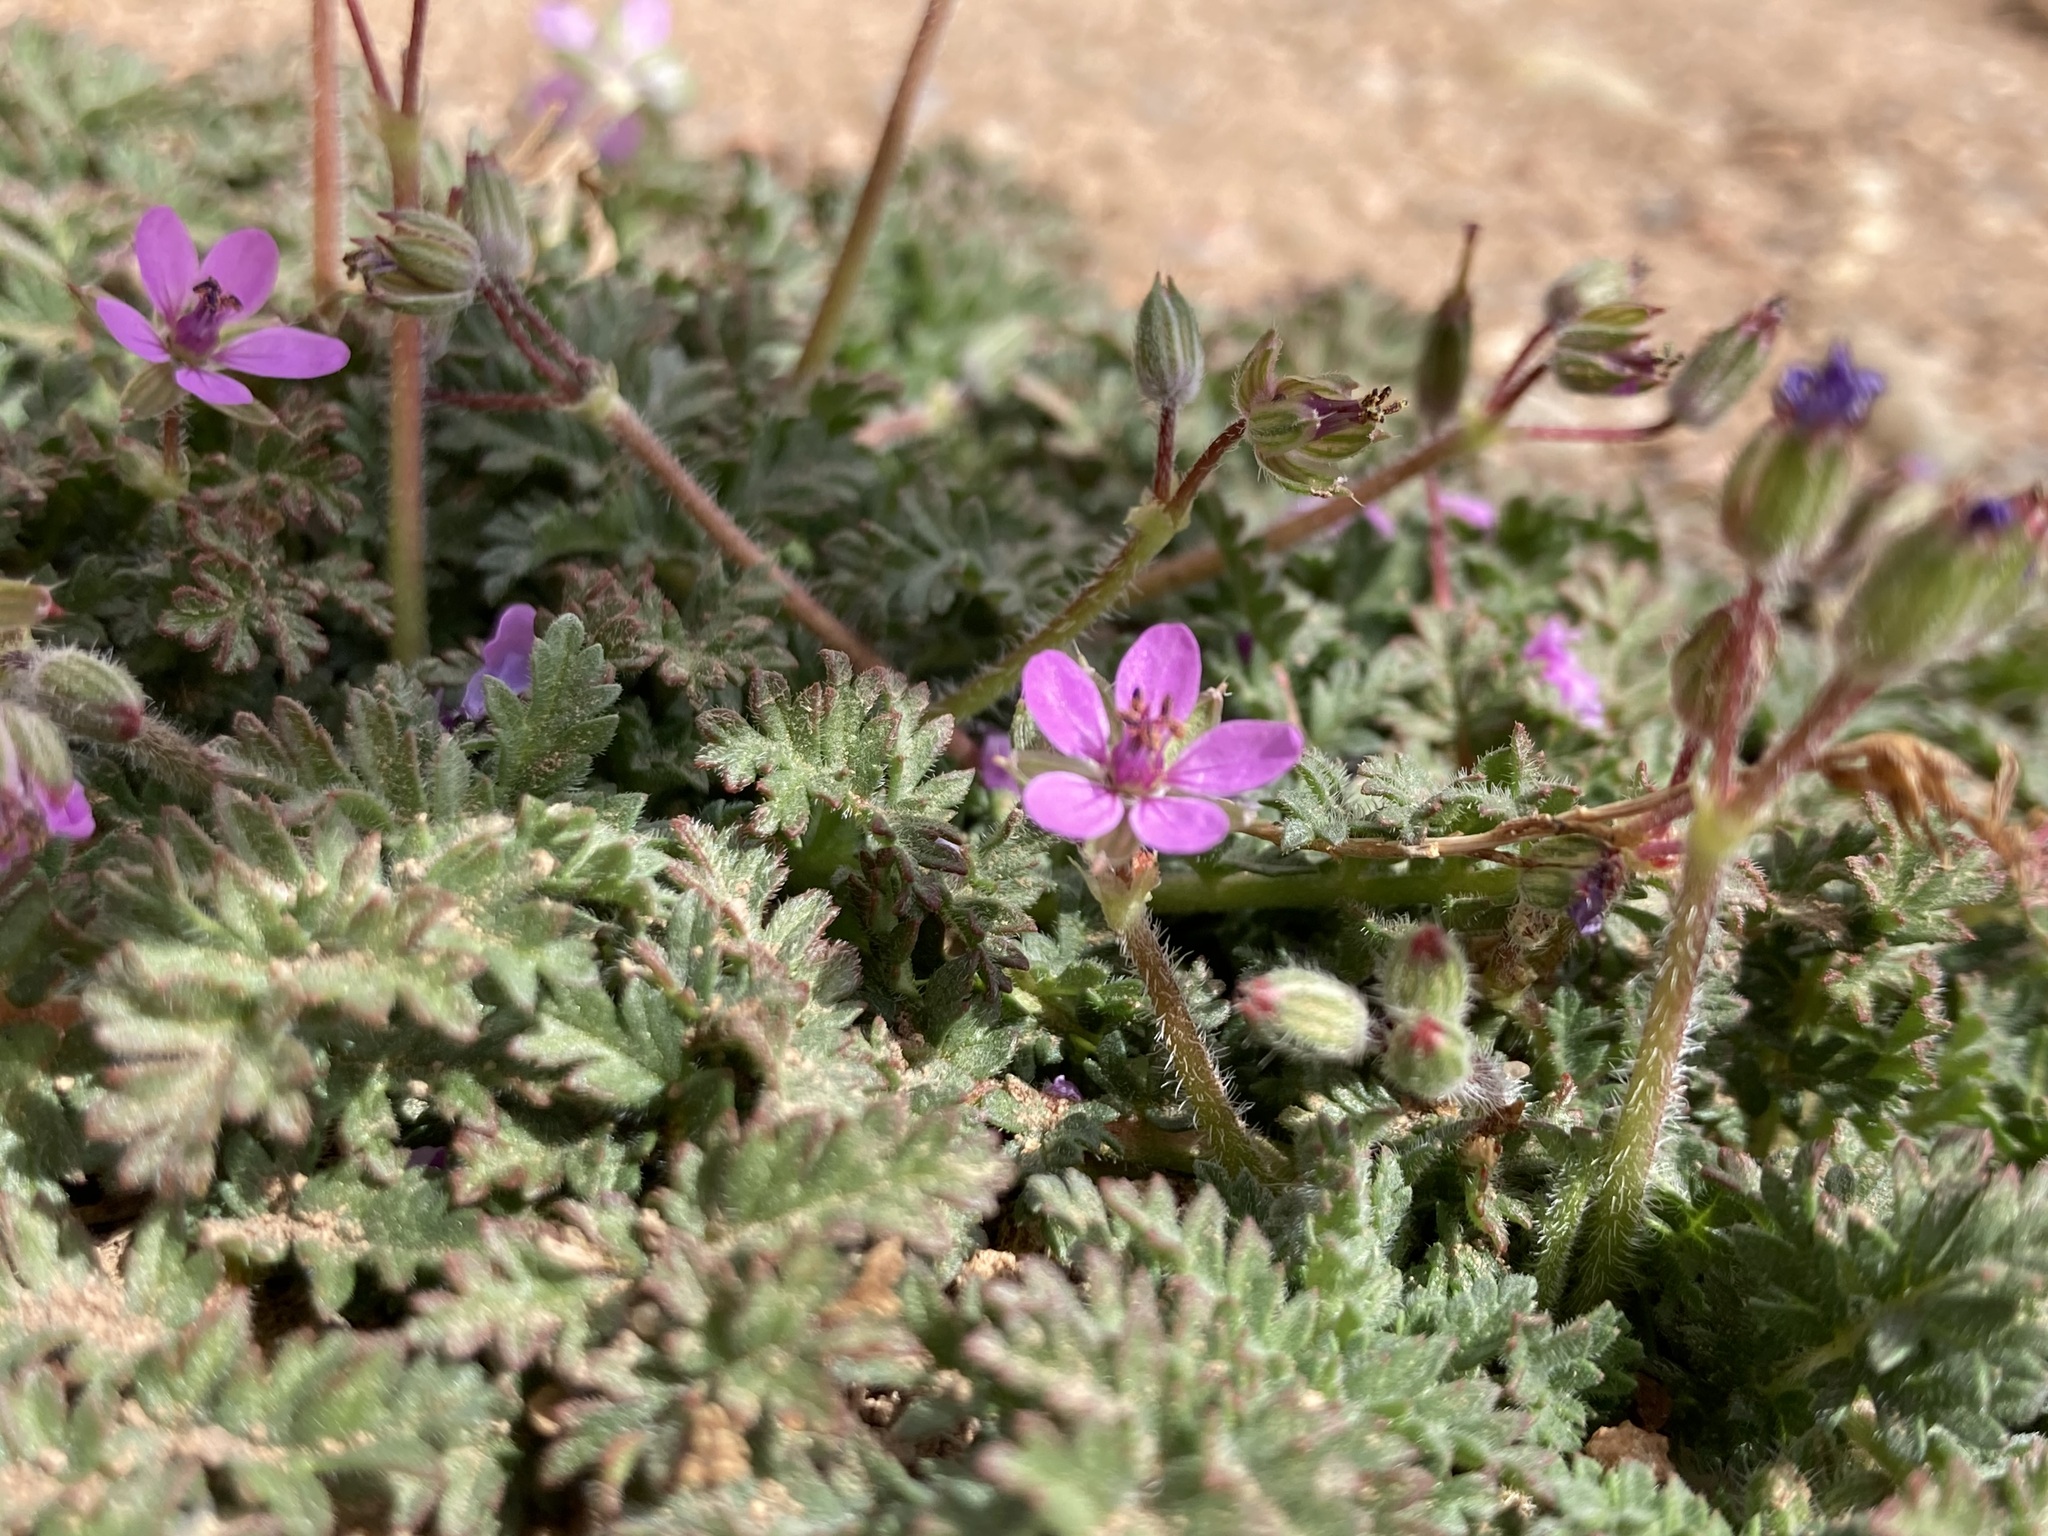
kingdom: Plantae
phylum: Tracheophyta
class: Magnoliopsida
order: Geraniales
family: Geraniaceae
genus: Erodium
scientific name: Erodium cicutarium
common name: Common stork's-bill
